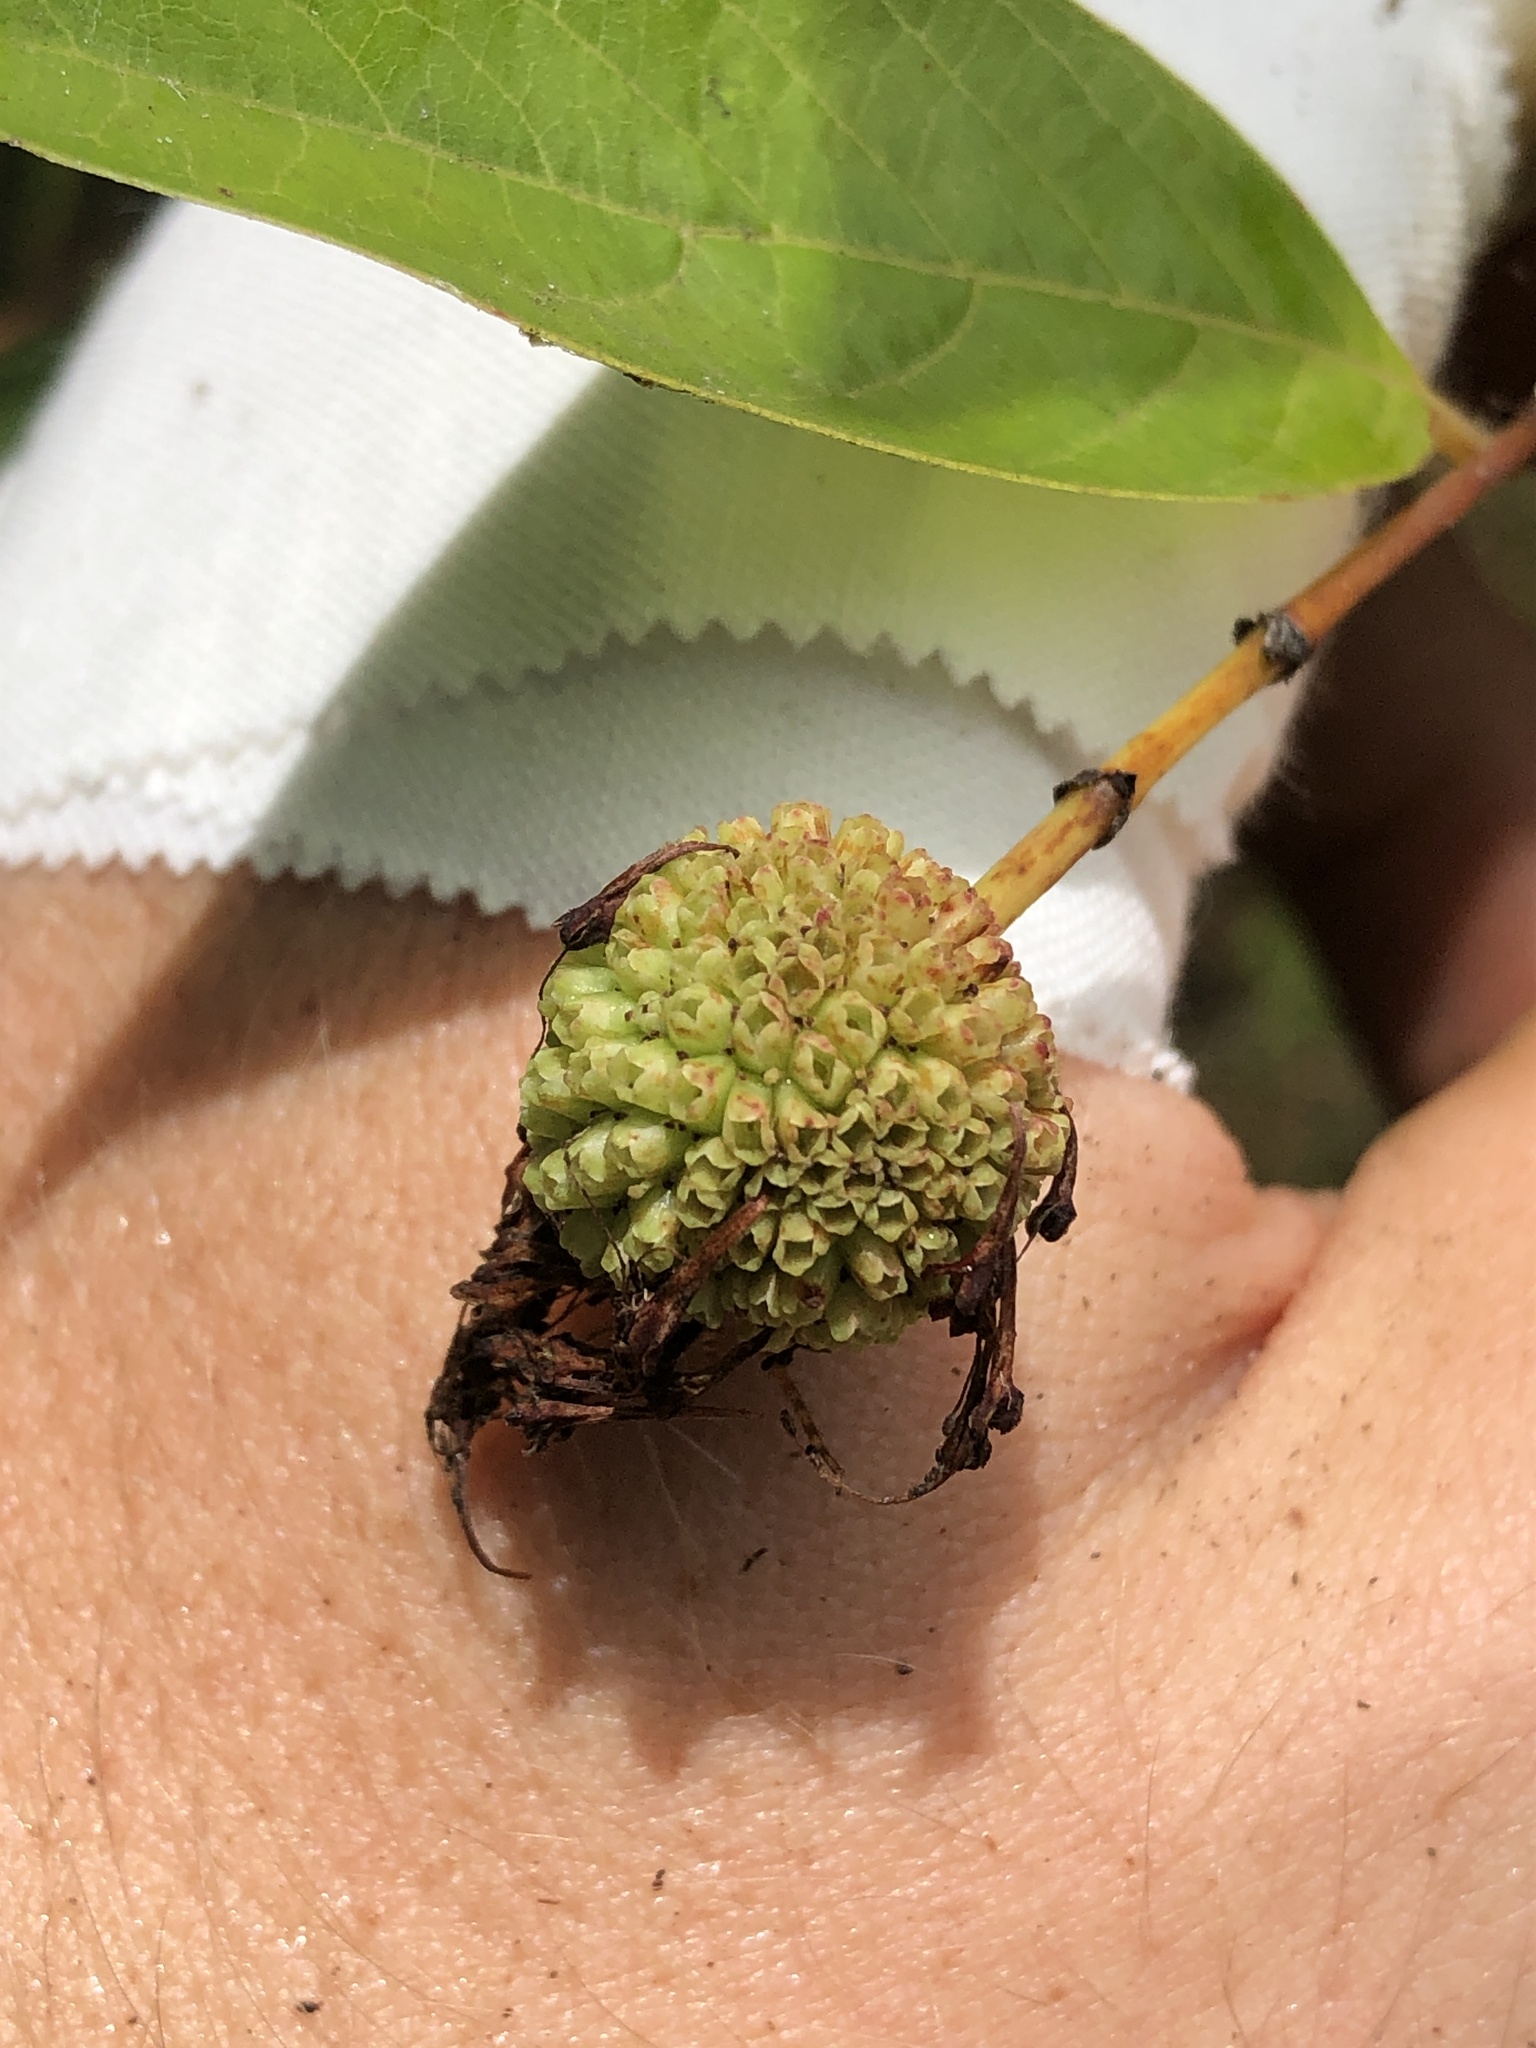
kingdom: Plantae
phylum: Tracheophyta
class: Magnoliopsida
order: Gentianales
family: Rubiaceae
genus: Cephalanthus
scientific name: Cephalanthus occidentalis
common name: Button-willow
